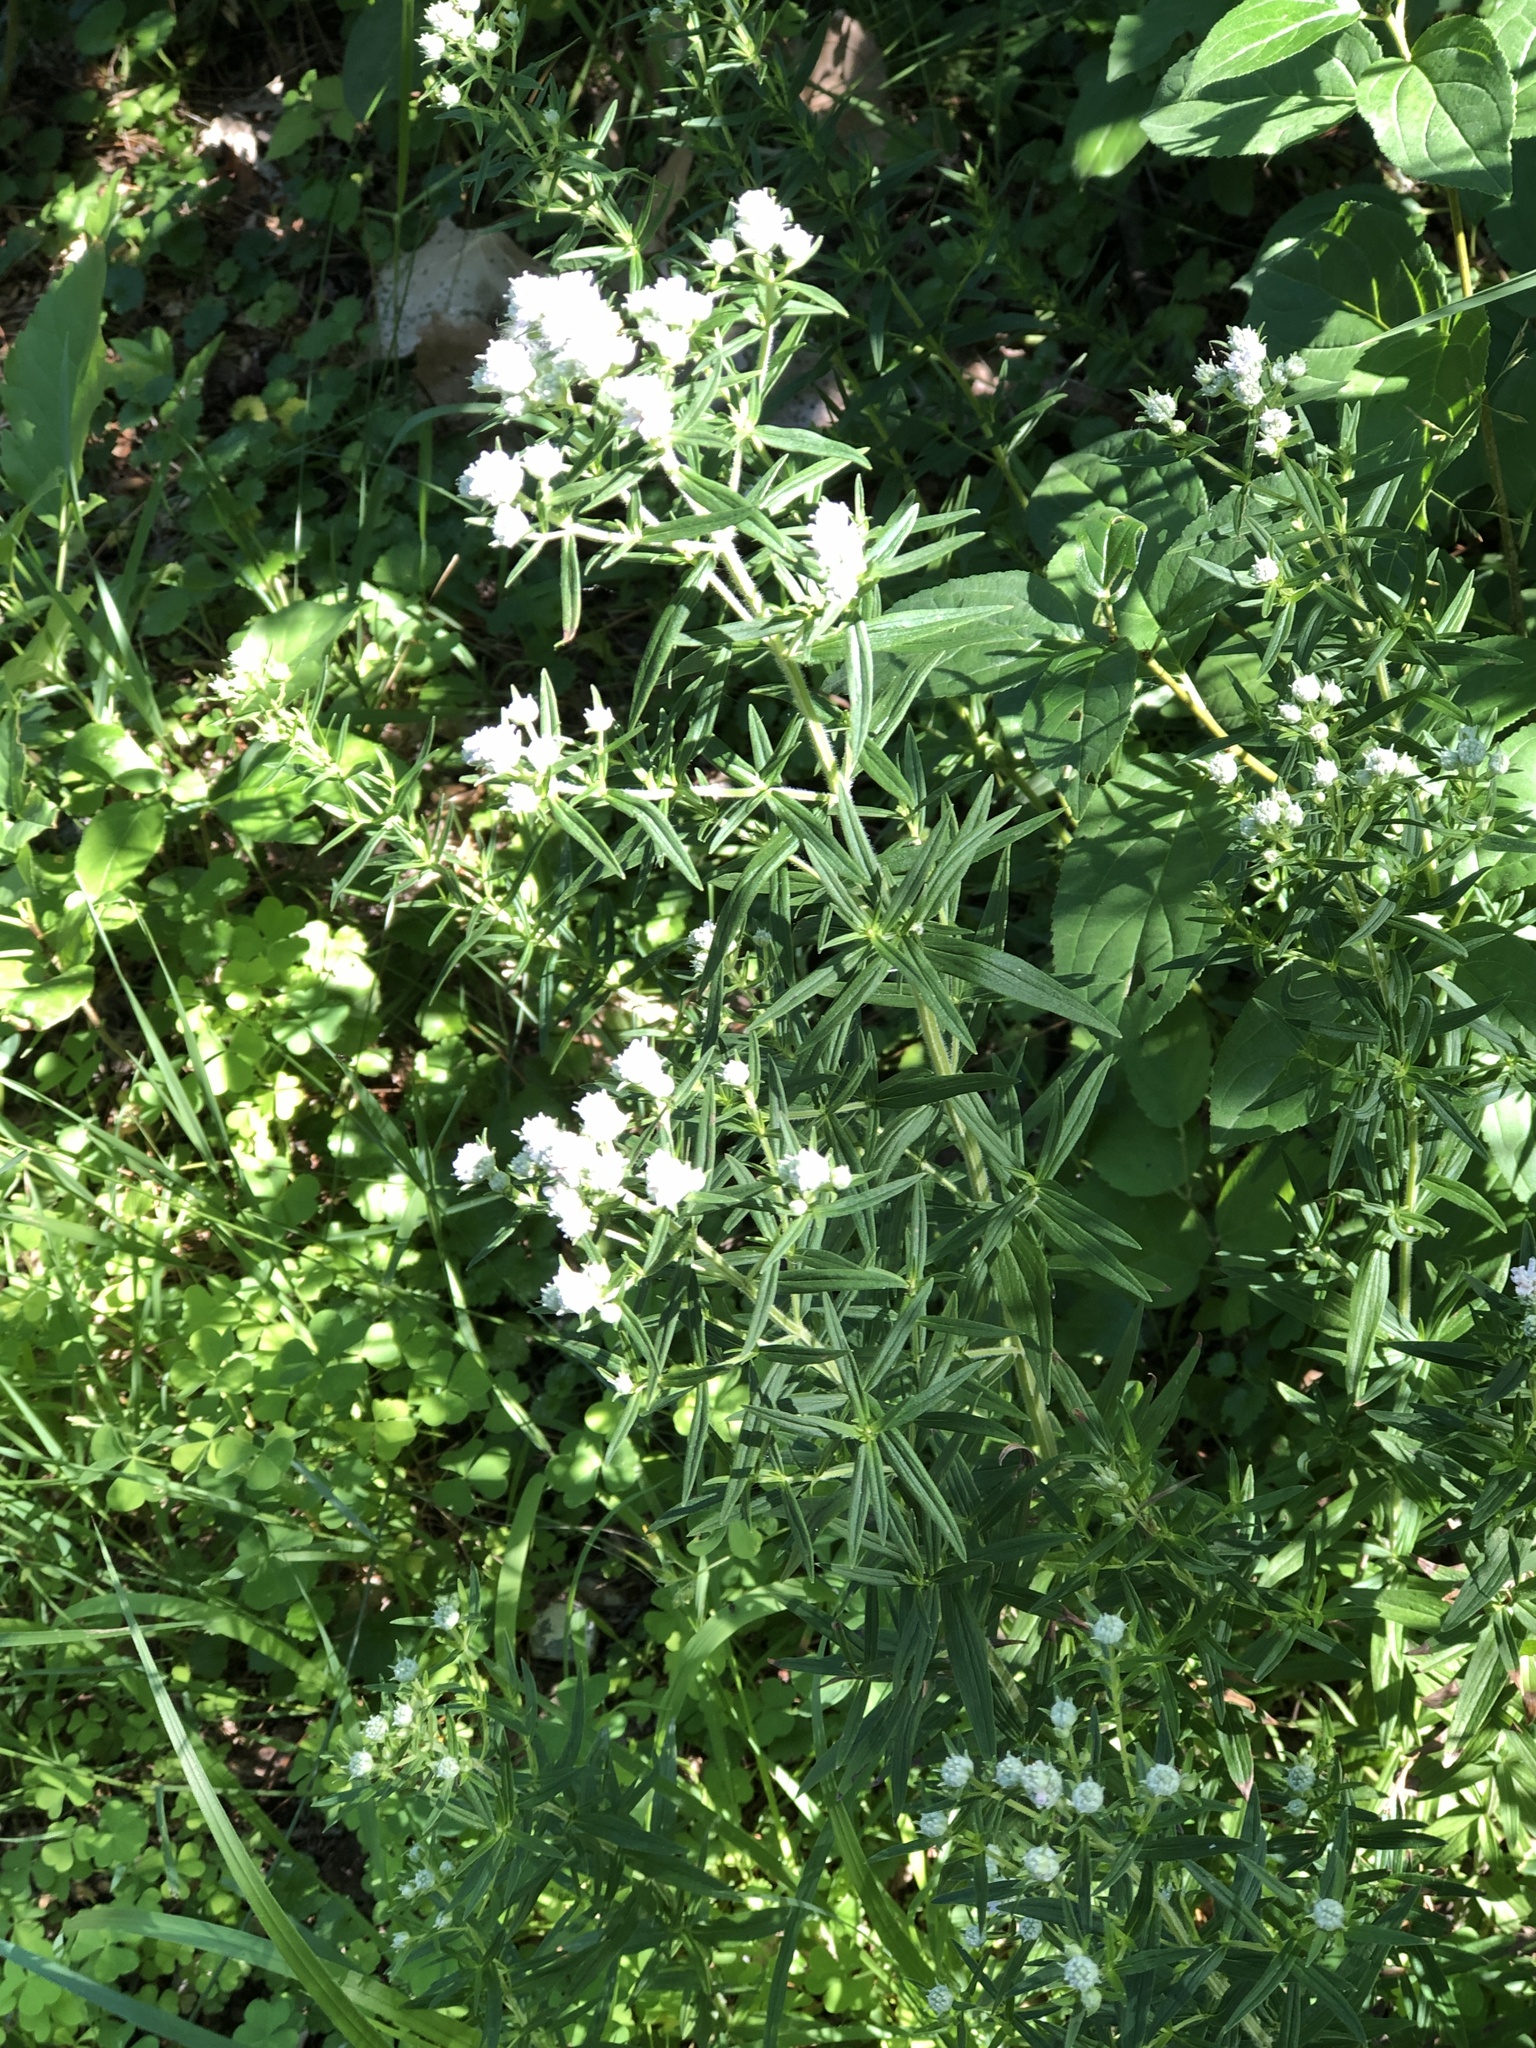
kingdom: Plantae
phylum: Tracheophyta
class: Magnoliopsida
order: Lamiales
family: Lamiaceae
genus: Pycnanthemum
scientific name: Pycnanthemum virginianum
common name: Virginia mountain-mint
